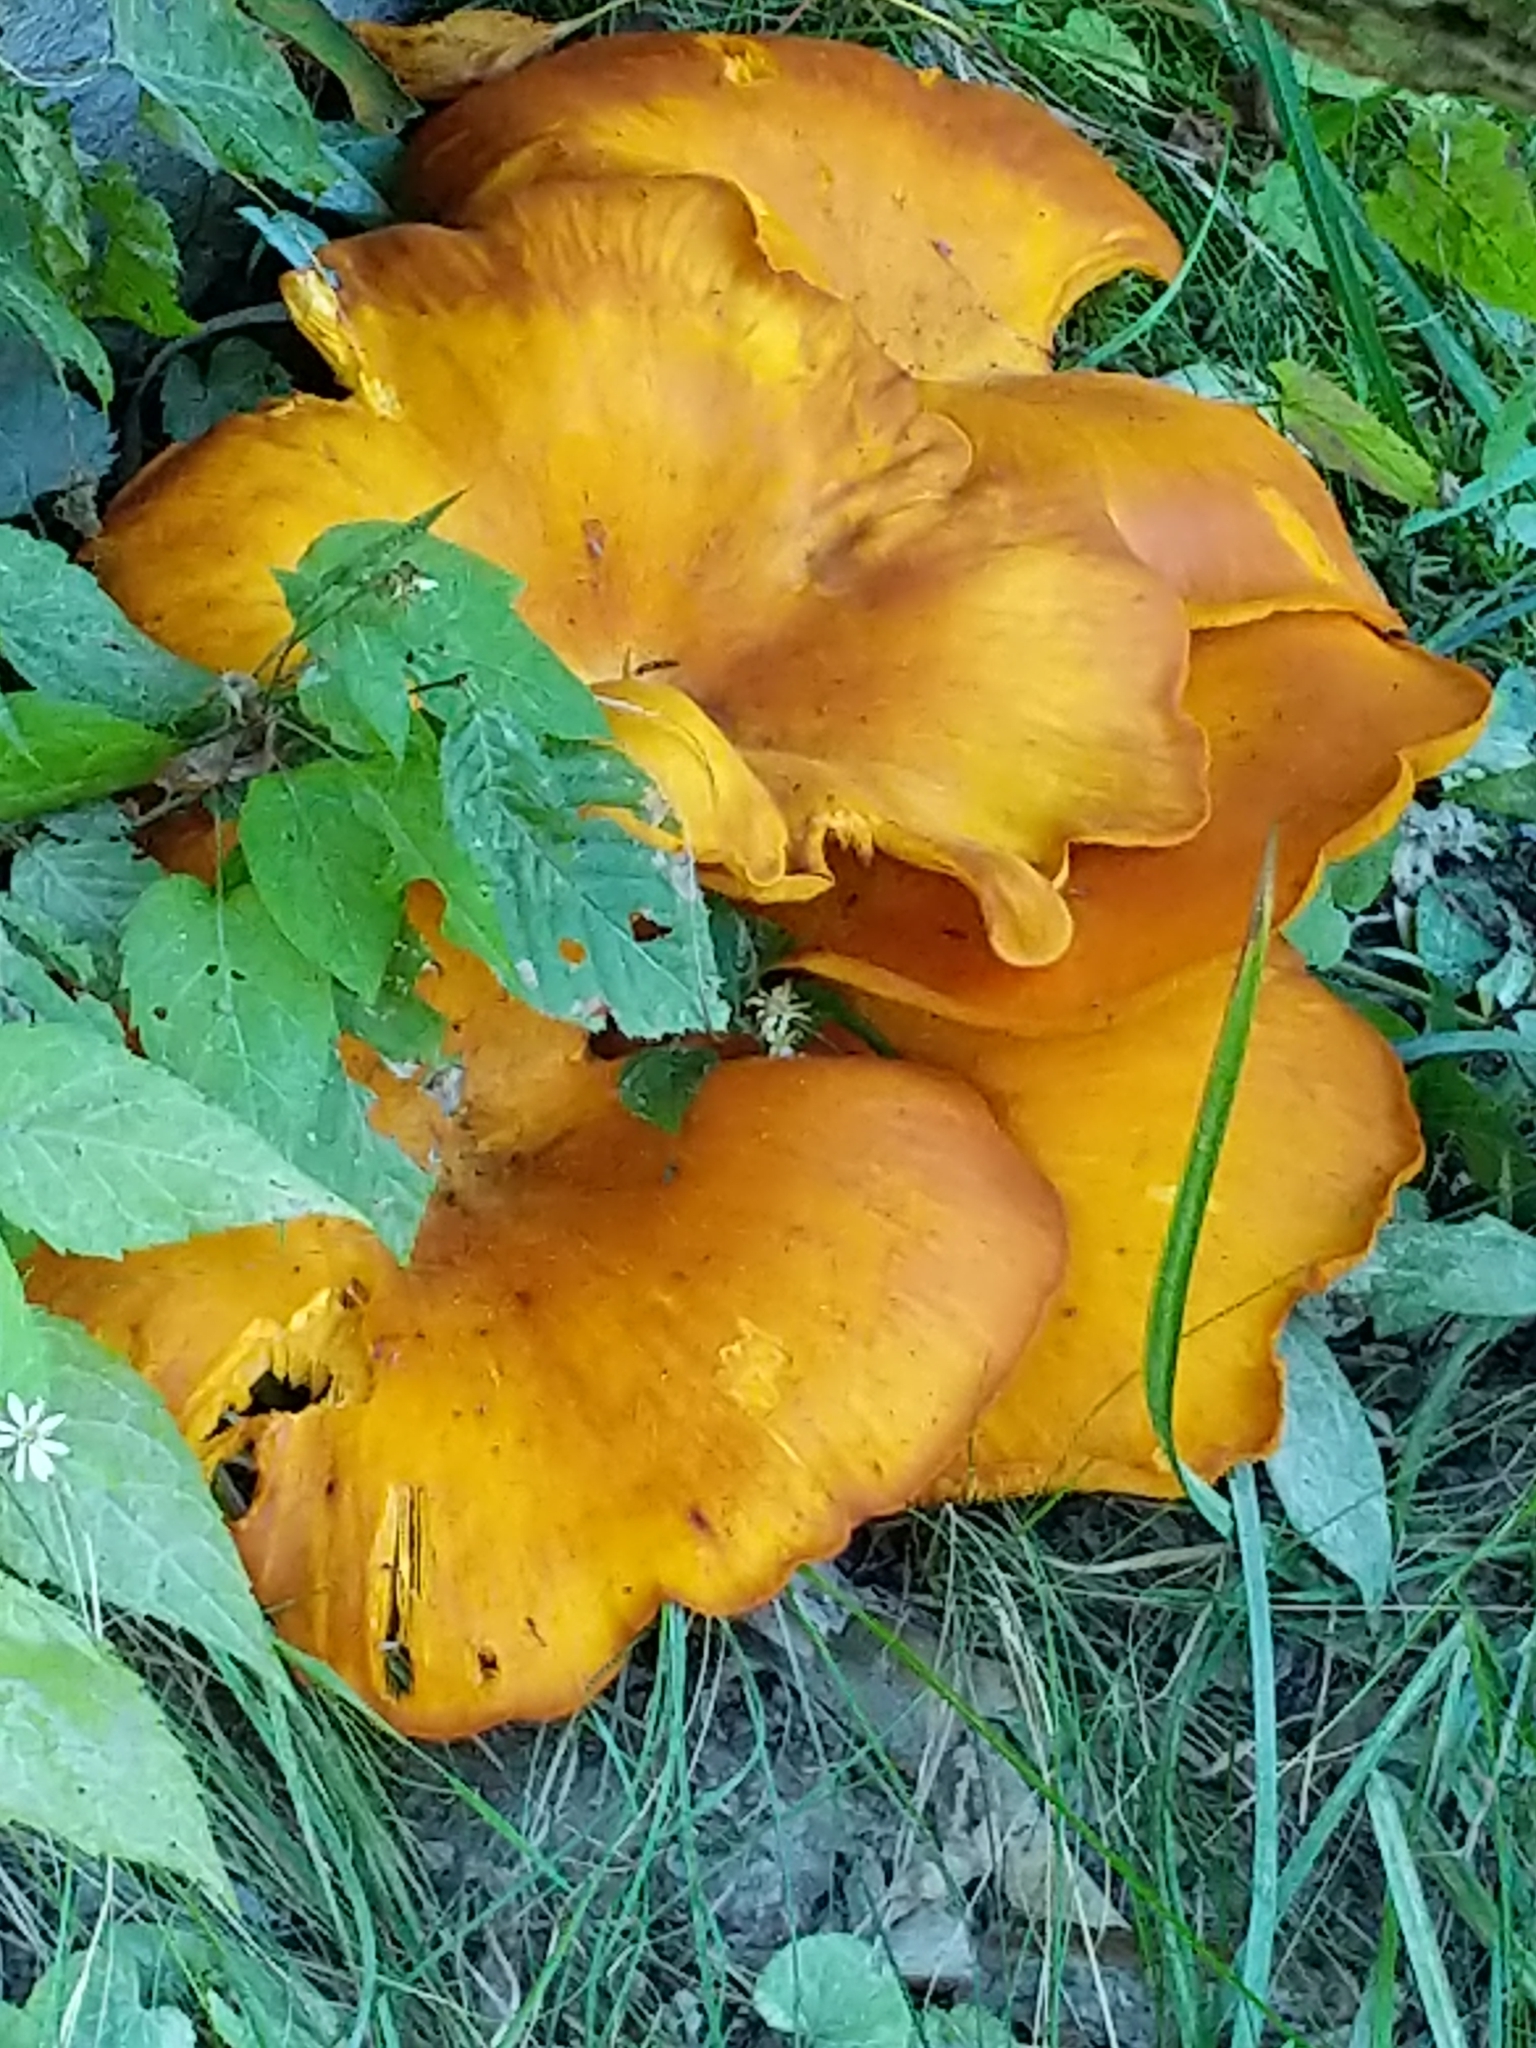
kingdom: Fungi
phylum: Basidiomycota
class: Agaricomycetes
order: Agaricales
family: Omphalotaceae
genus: Omphalotus
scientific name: Omphalotus illudens
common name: Jack o lantern
